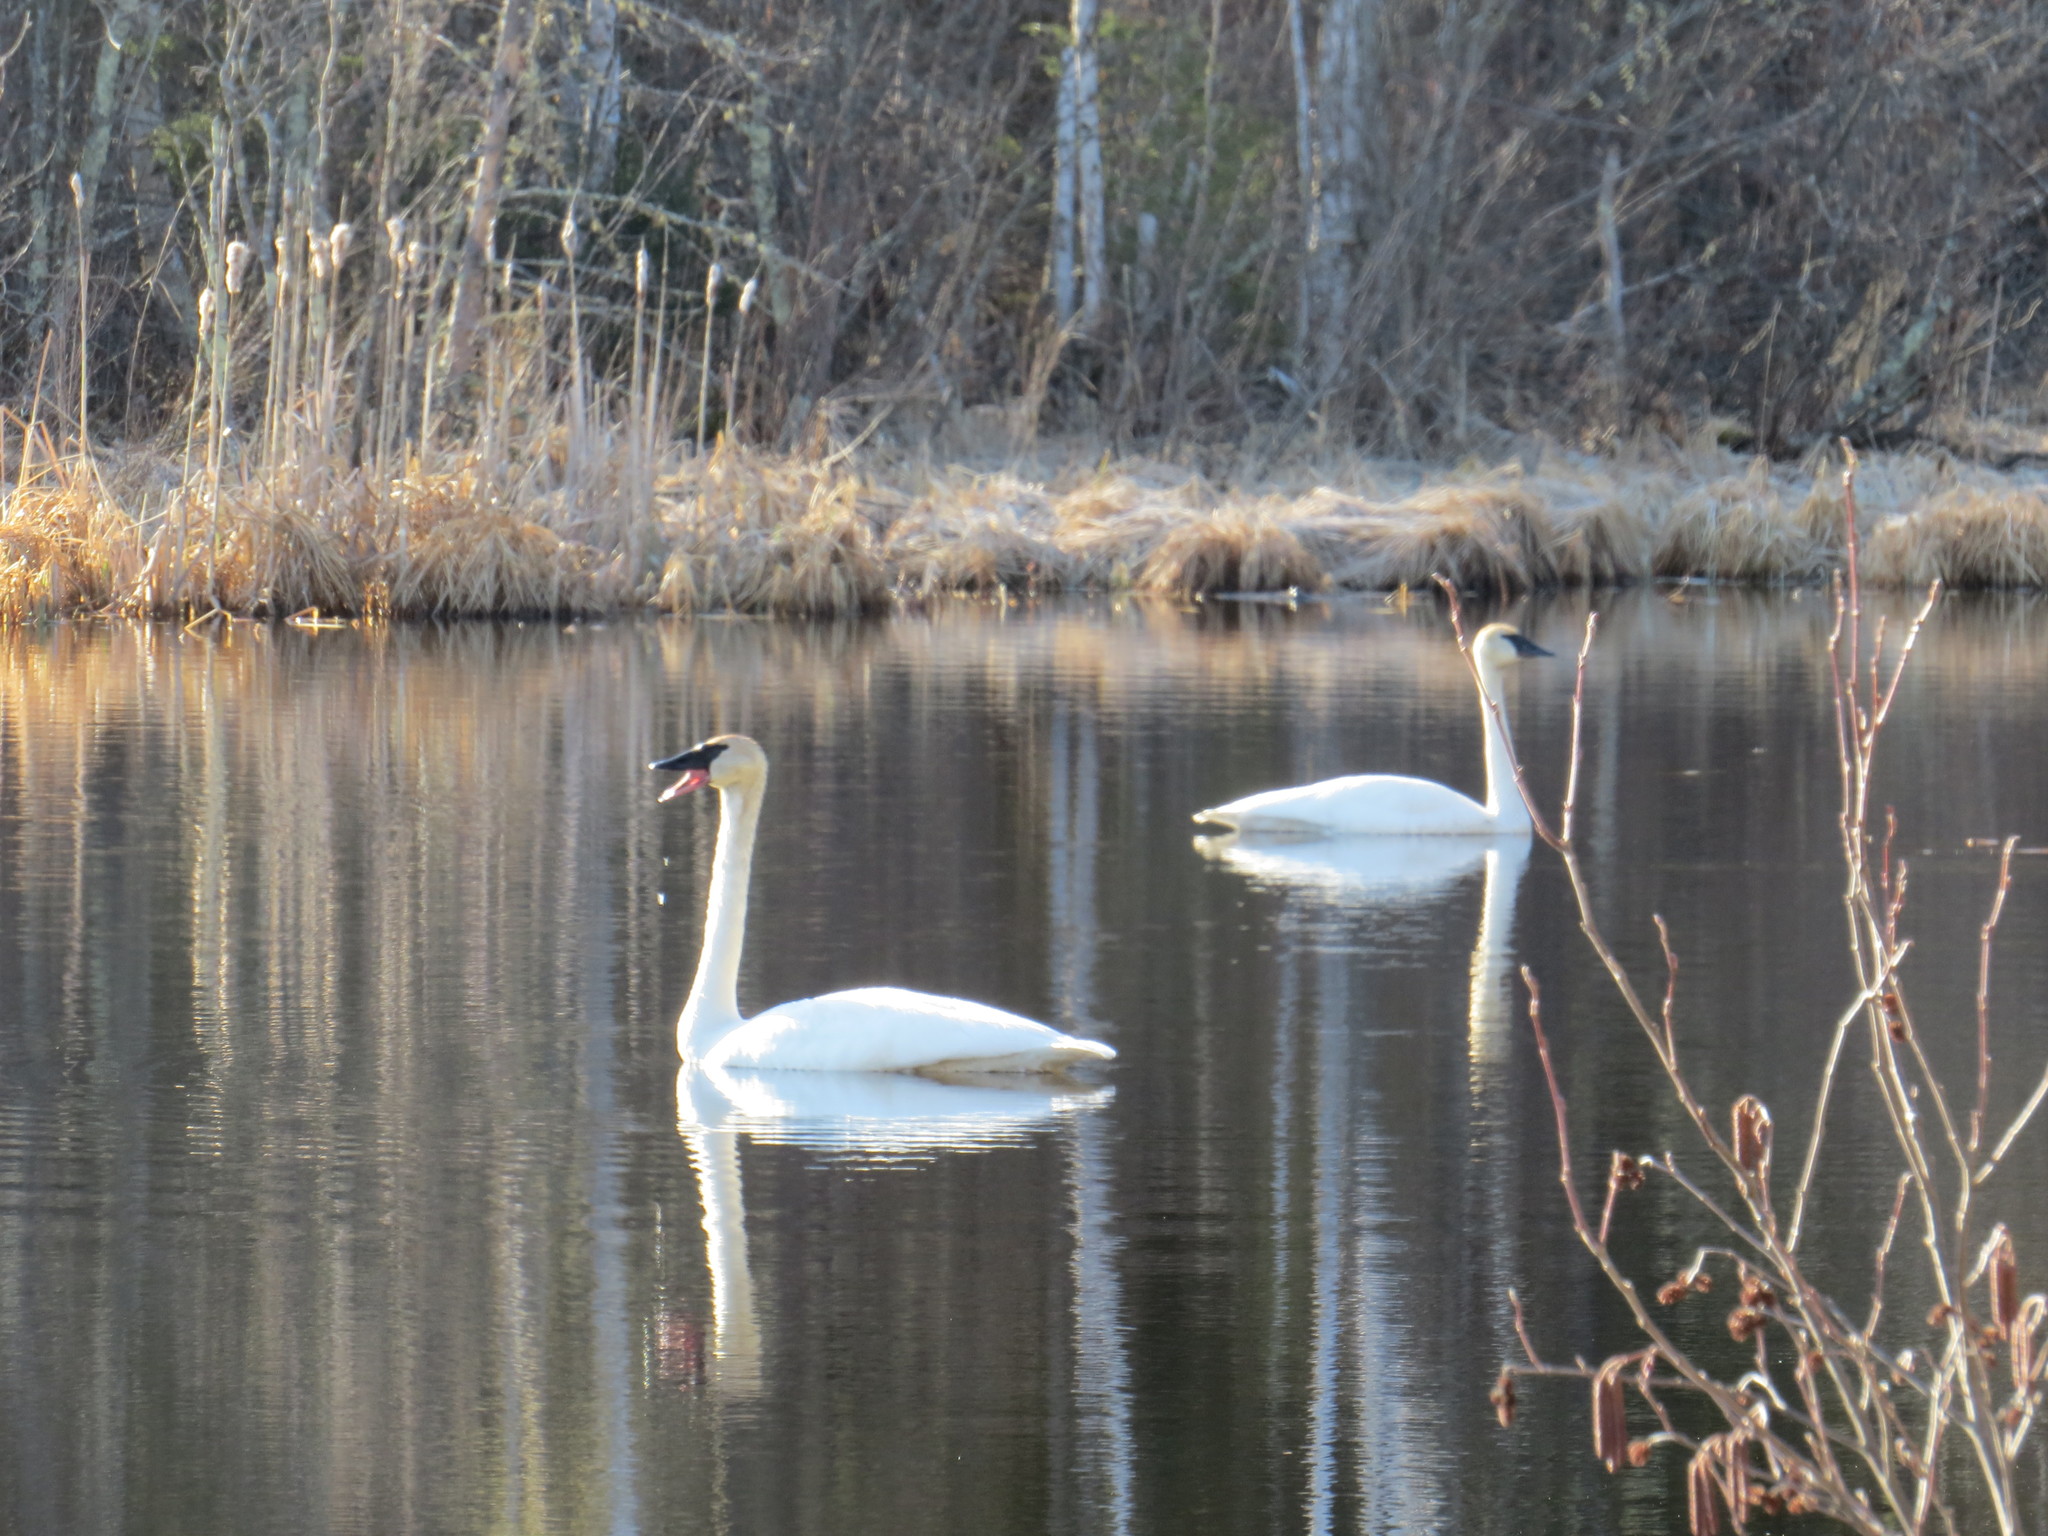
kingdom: Animalia
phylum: Chordata
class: Aves
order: Anseriformes
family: Anatidae
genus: Cygnus
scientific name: Cygnus buccinator
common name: Trumpeter swan
